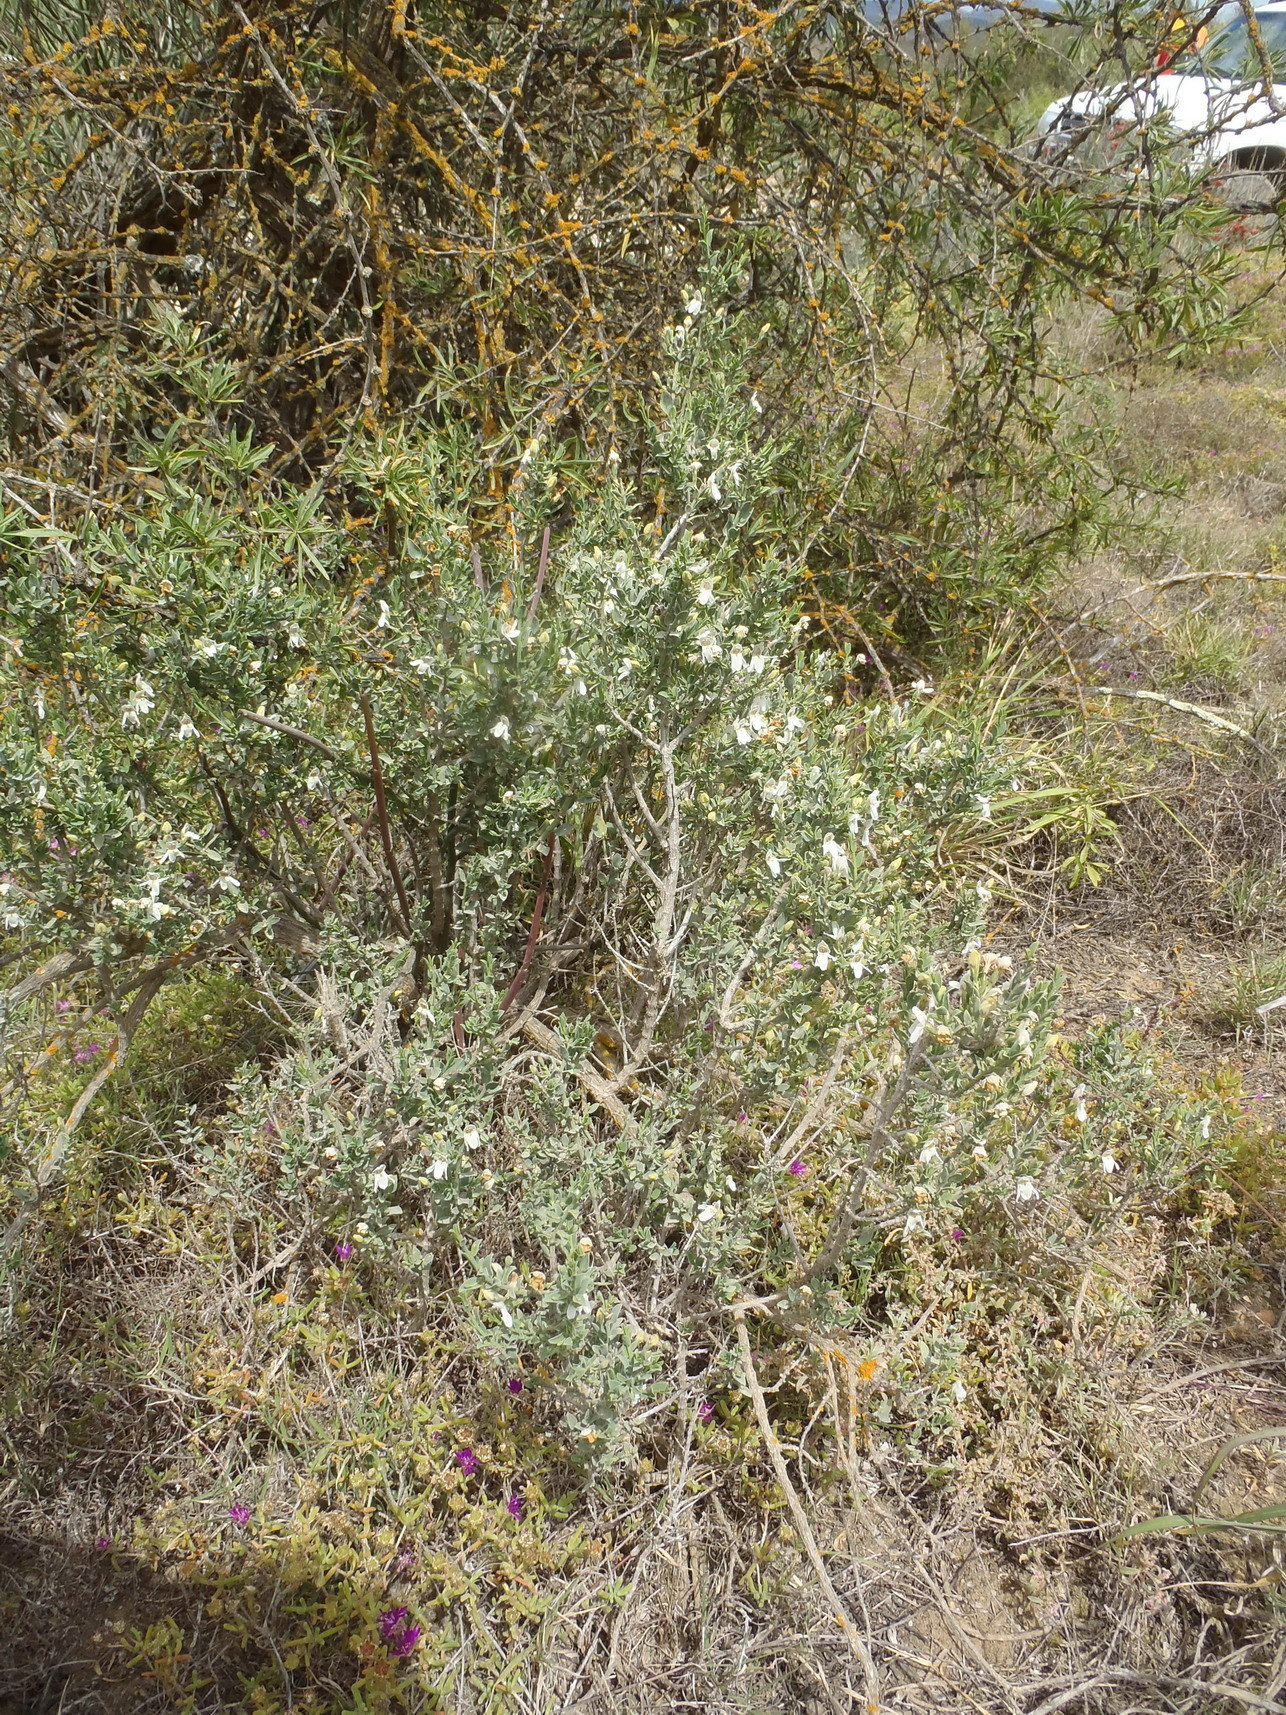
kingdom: Plantae
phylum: Tracheophyta
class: Magnoliopsida
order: Lamiales
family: Acanthaceae
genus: Justicia
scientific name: Justicia cuneata
